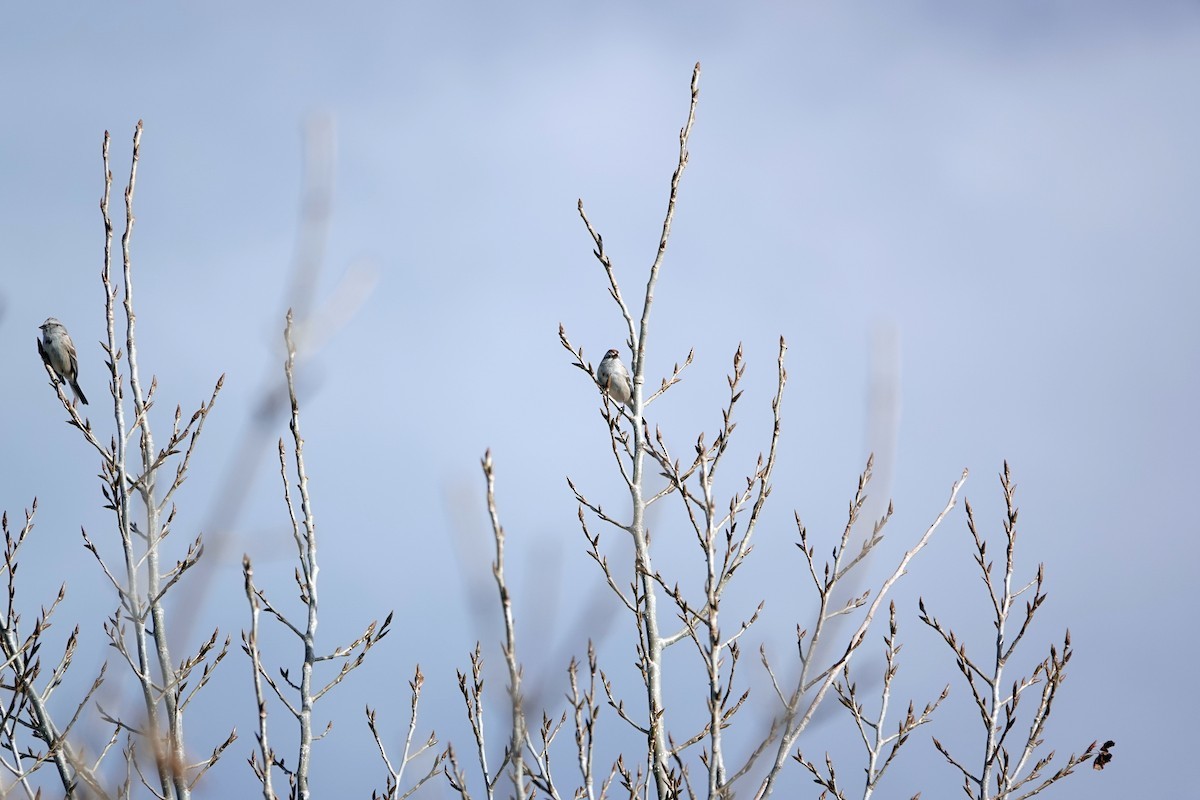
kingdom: Animalia
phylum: Chordata
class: Aves
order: Passeriformes
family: Passerellidae
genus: Spizelloides
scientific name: Spizelloides arborea
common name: American tree sparrow
